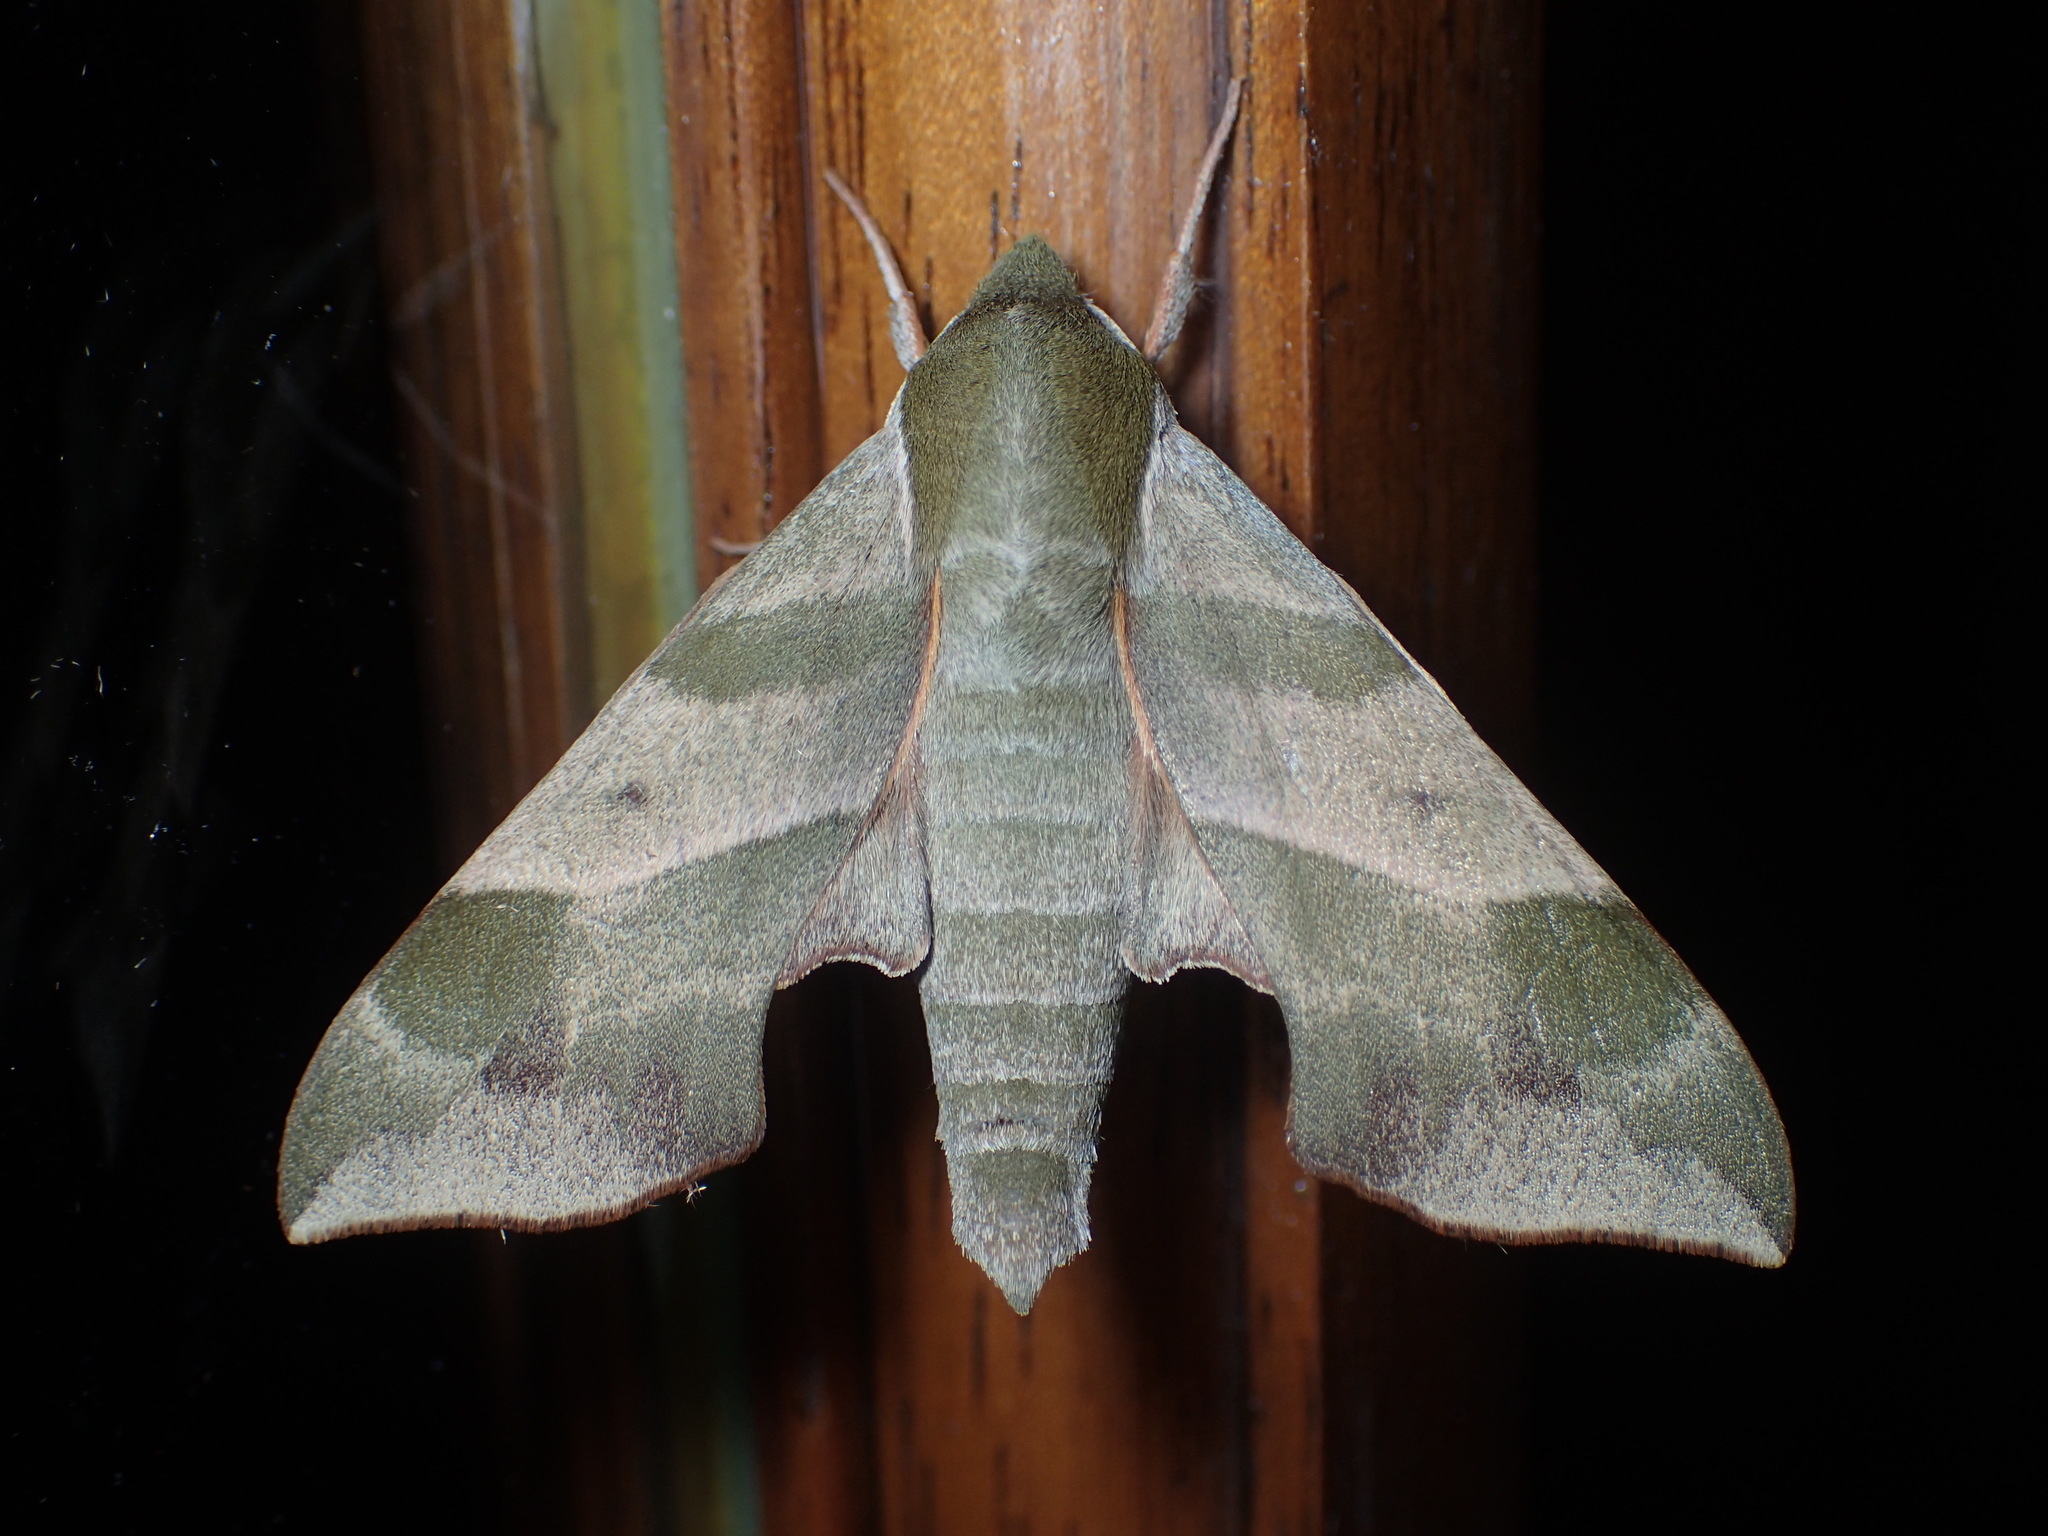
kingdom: Animalia
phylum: Arthropoda
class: Insecta
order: Lepidoptera
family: Sphingidae
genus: Darapsa
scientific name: Darapsa myron
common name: Hog sphinx
